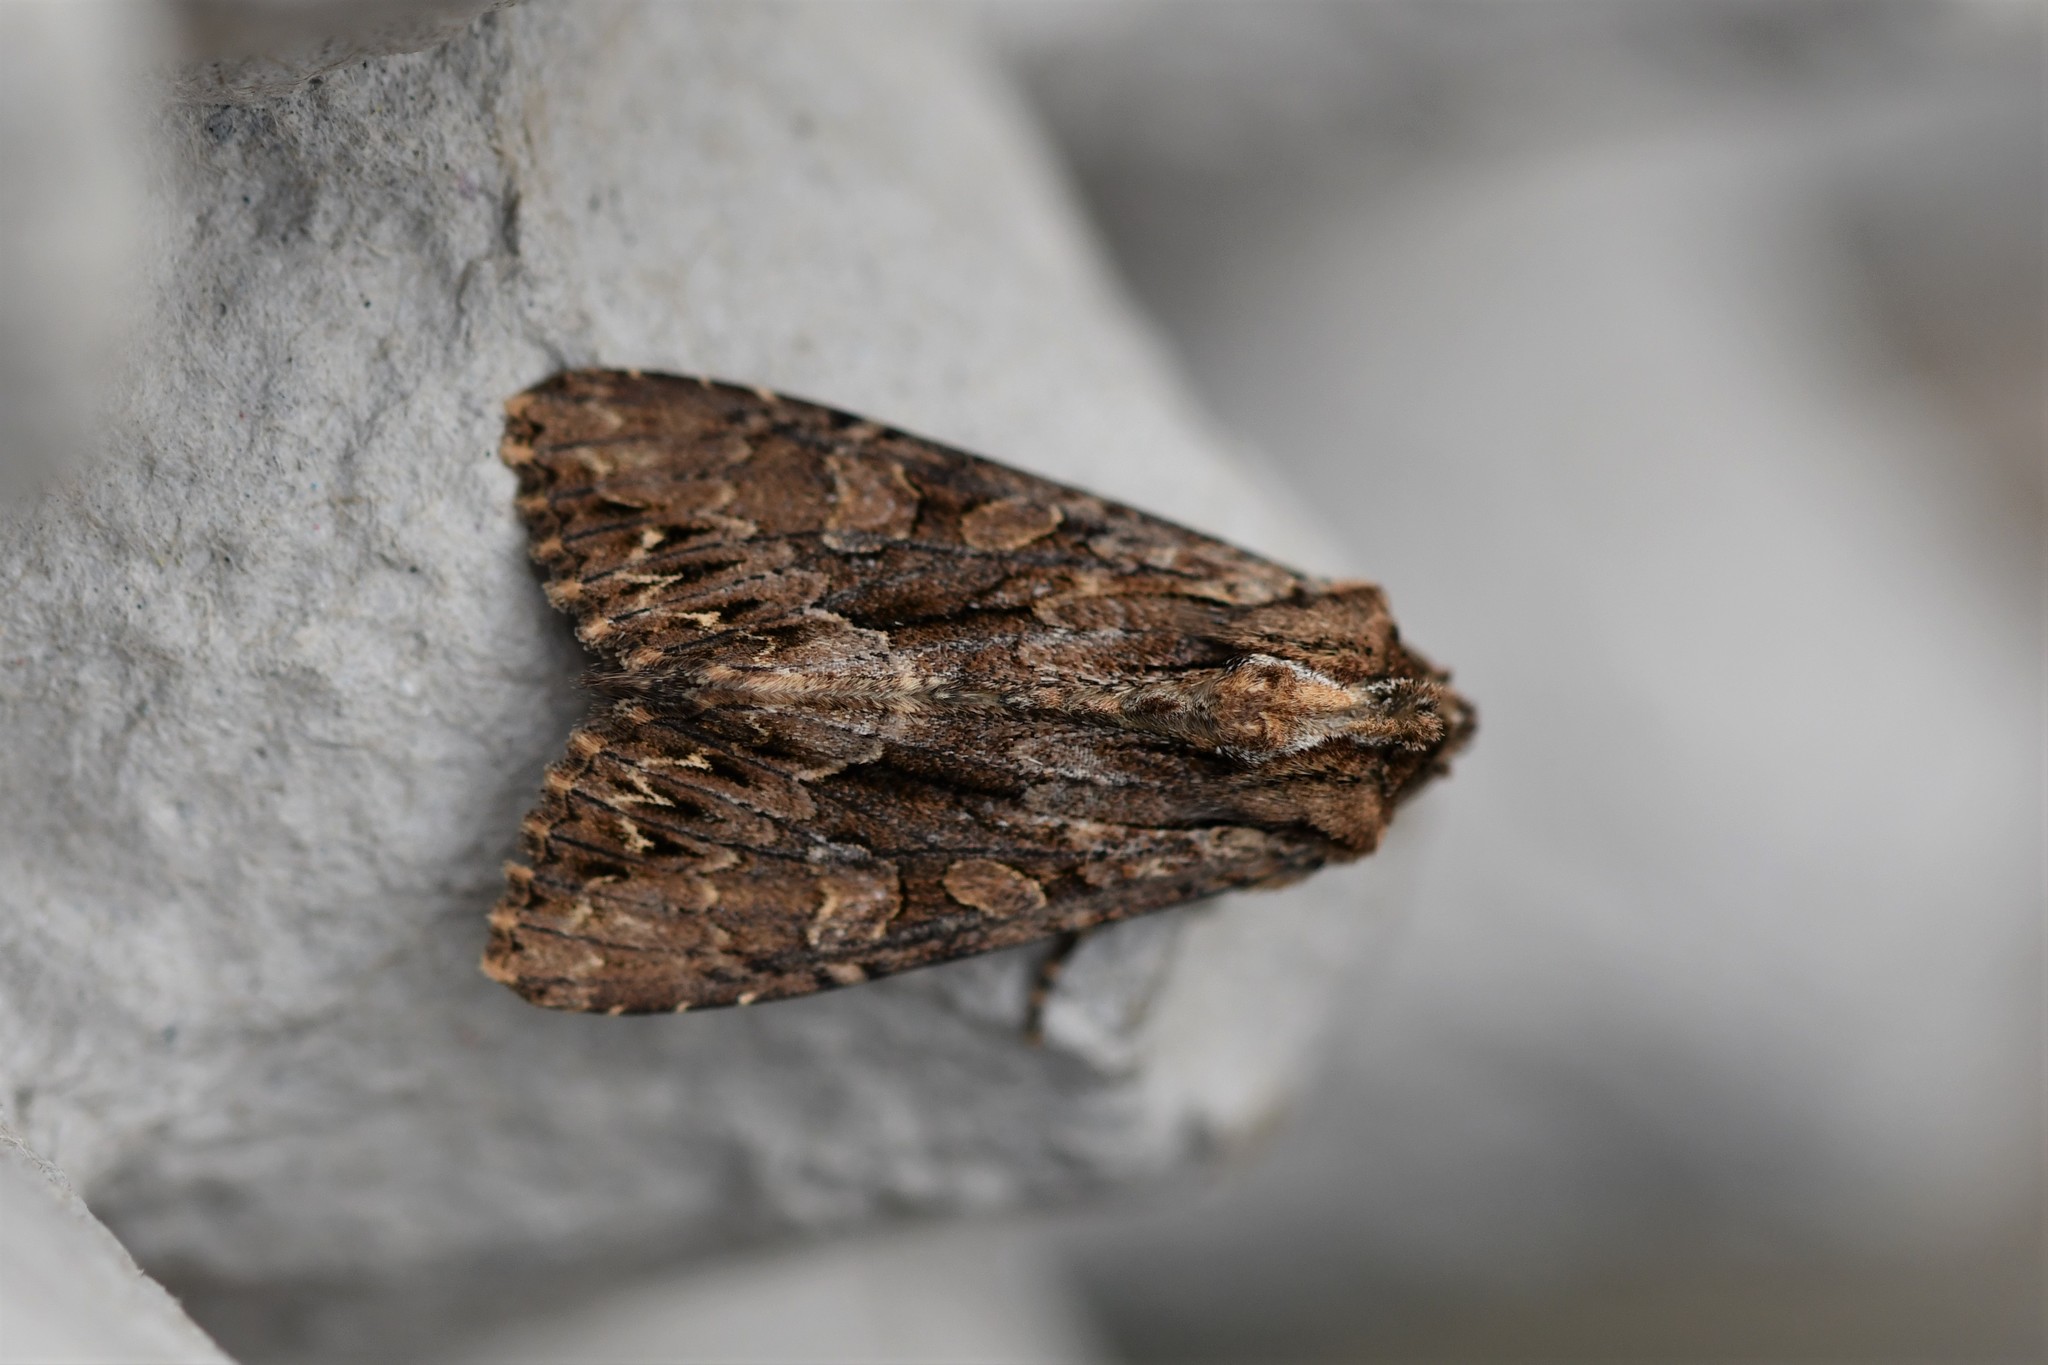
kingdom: Animalia
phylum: Arthropoda
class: Insecta
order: Lepidoptera
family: Noctuidae
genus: Apamea
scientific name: Apamea monoglypha
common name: Dark arches
